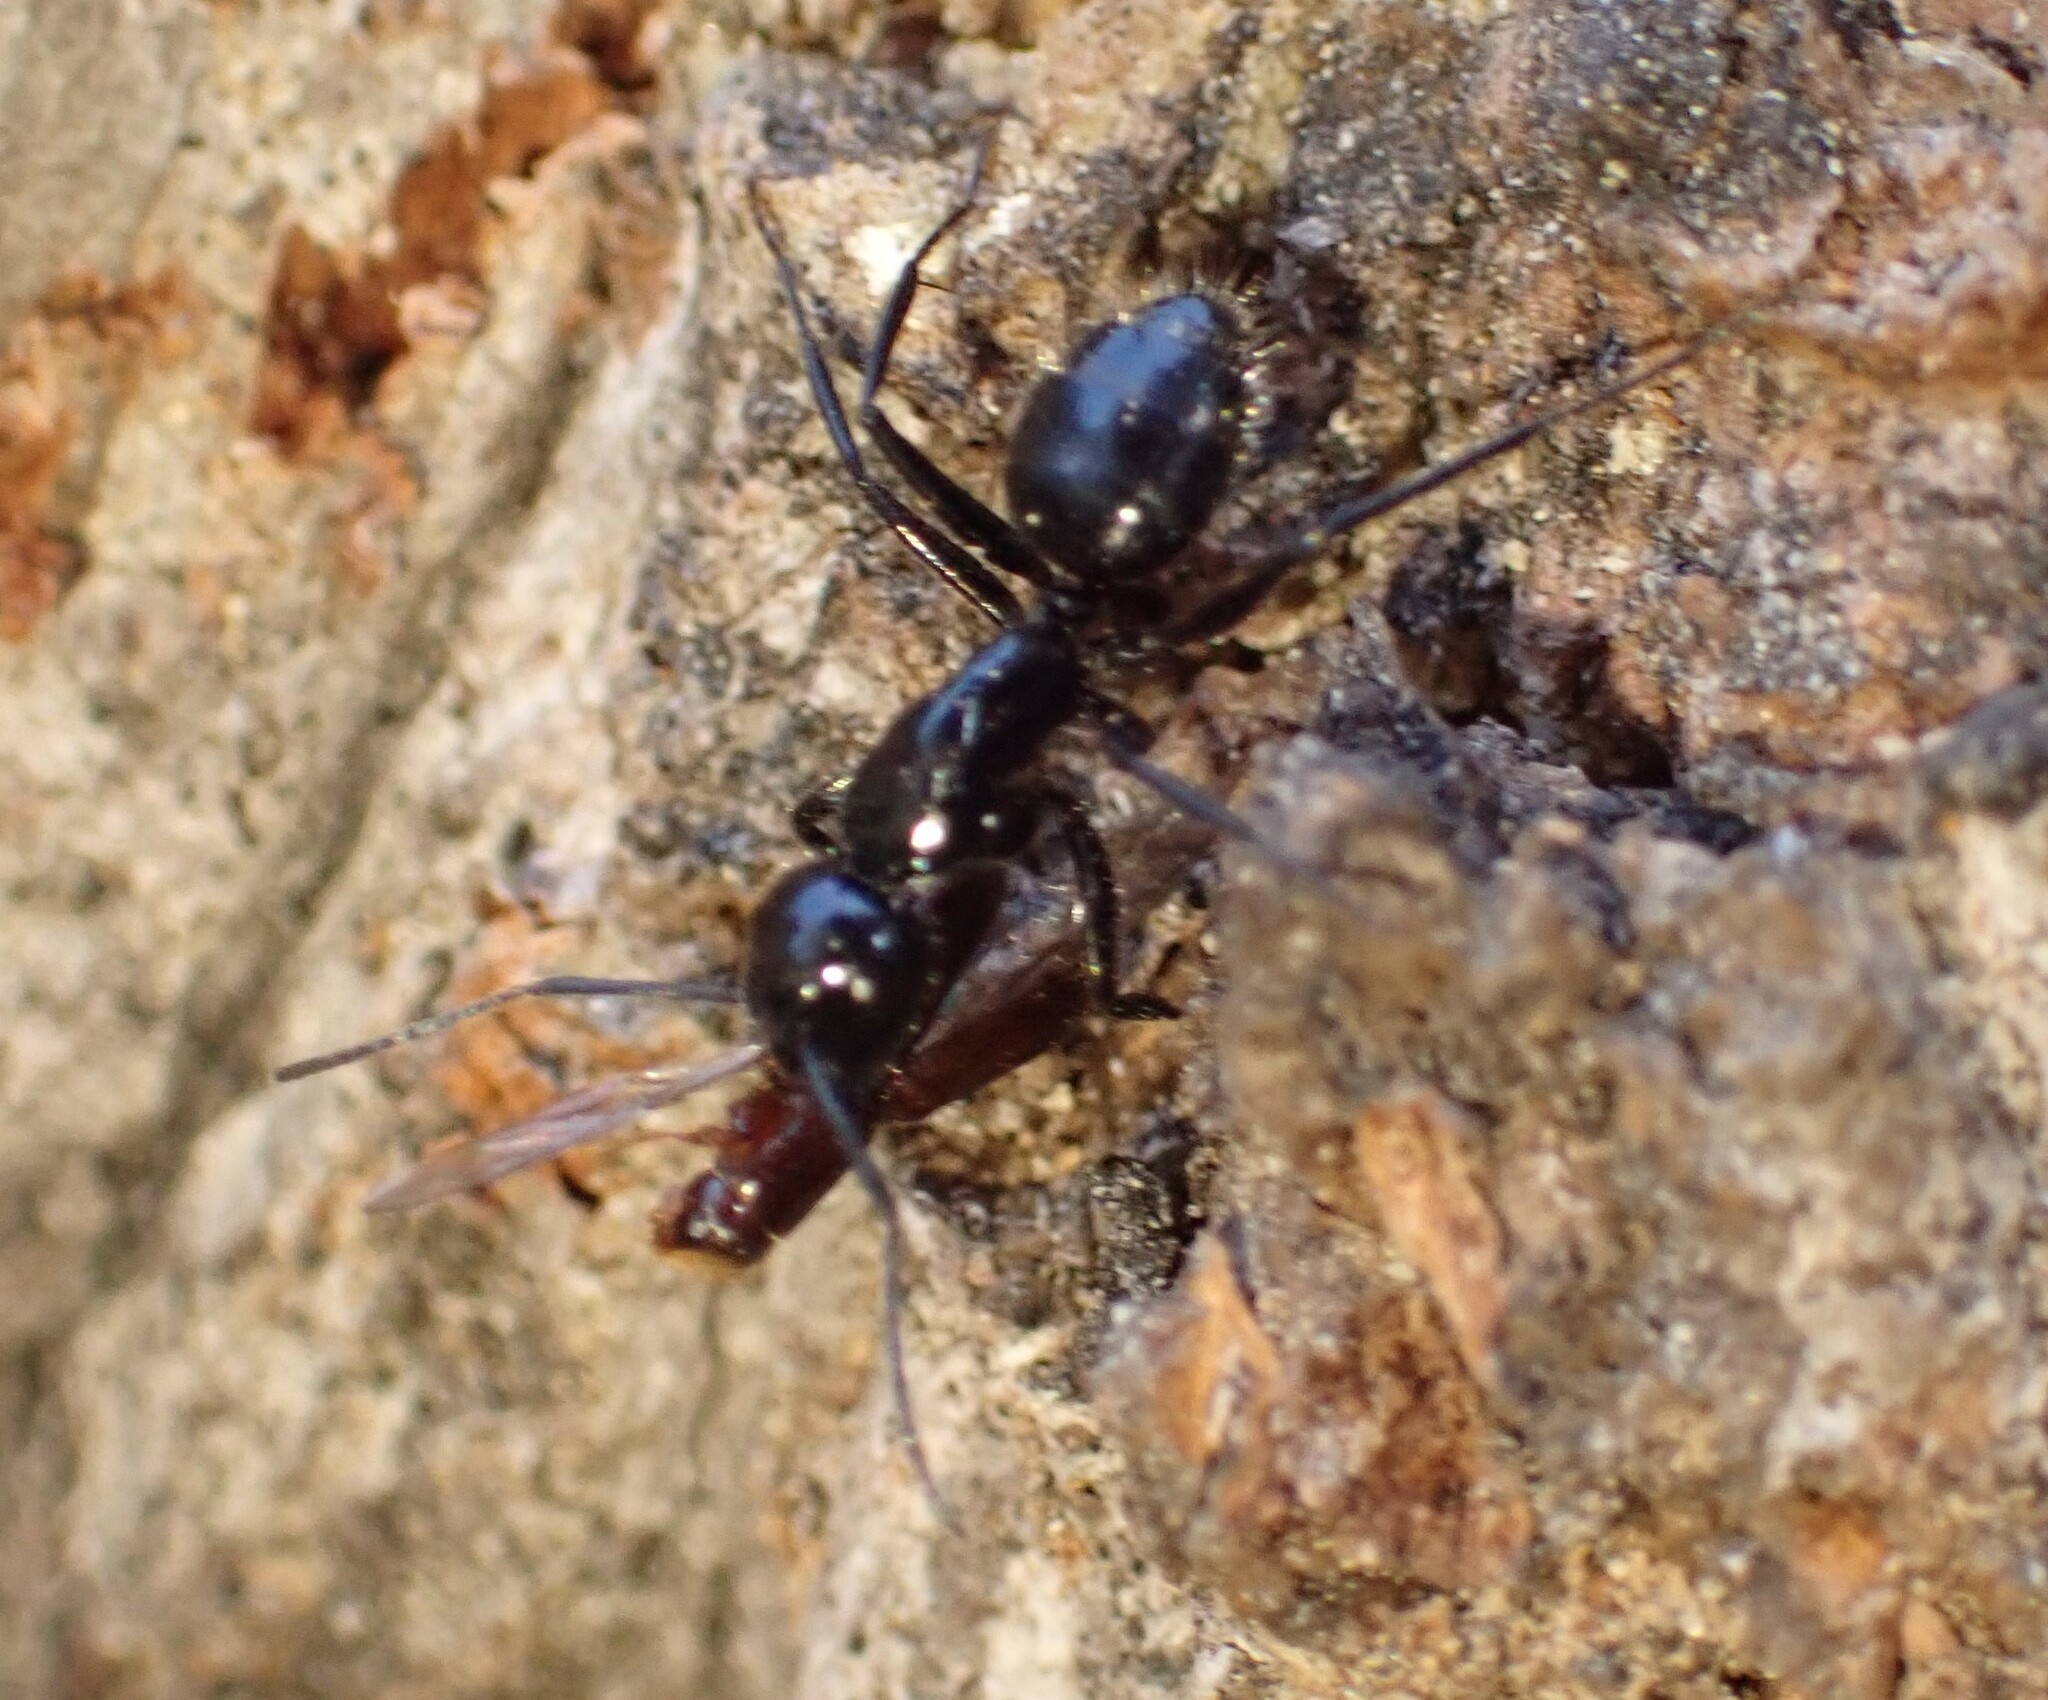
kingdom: Animalia
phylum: Arthropoda
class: Insecta
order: Hymenoptera
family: Formicidae
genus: Camponotus
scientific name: Camponotus
